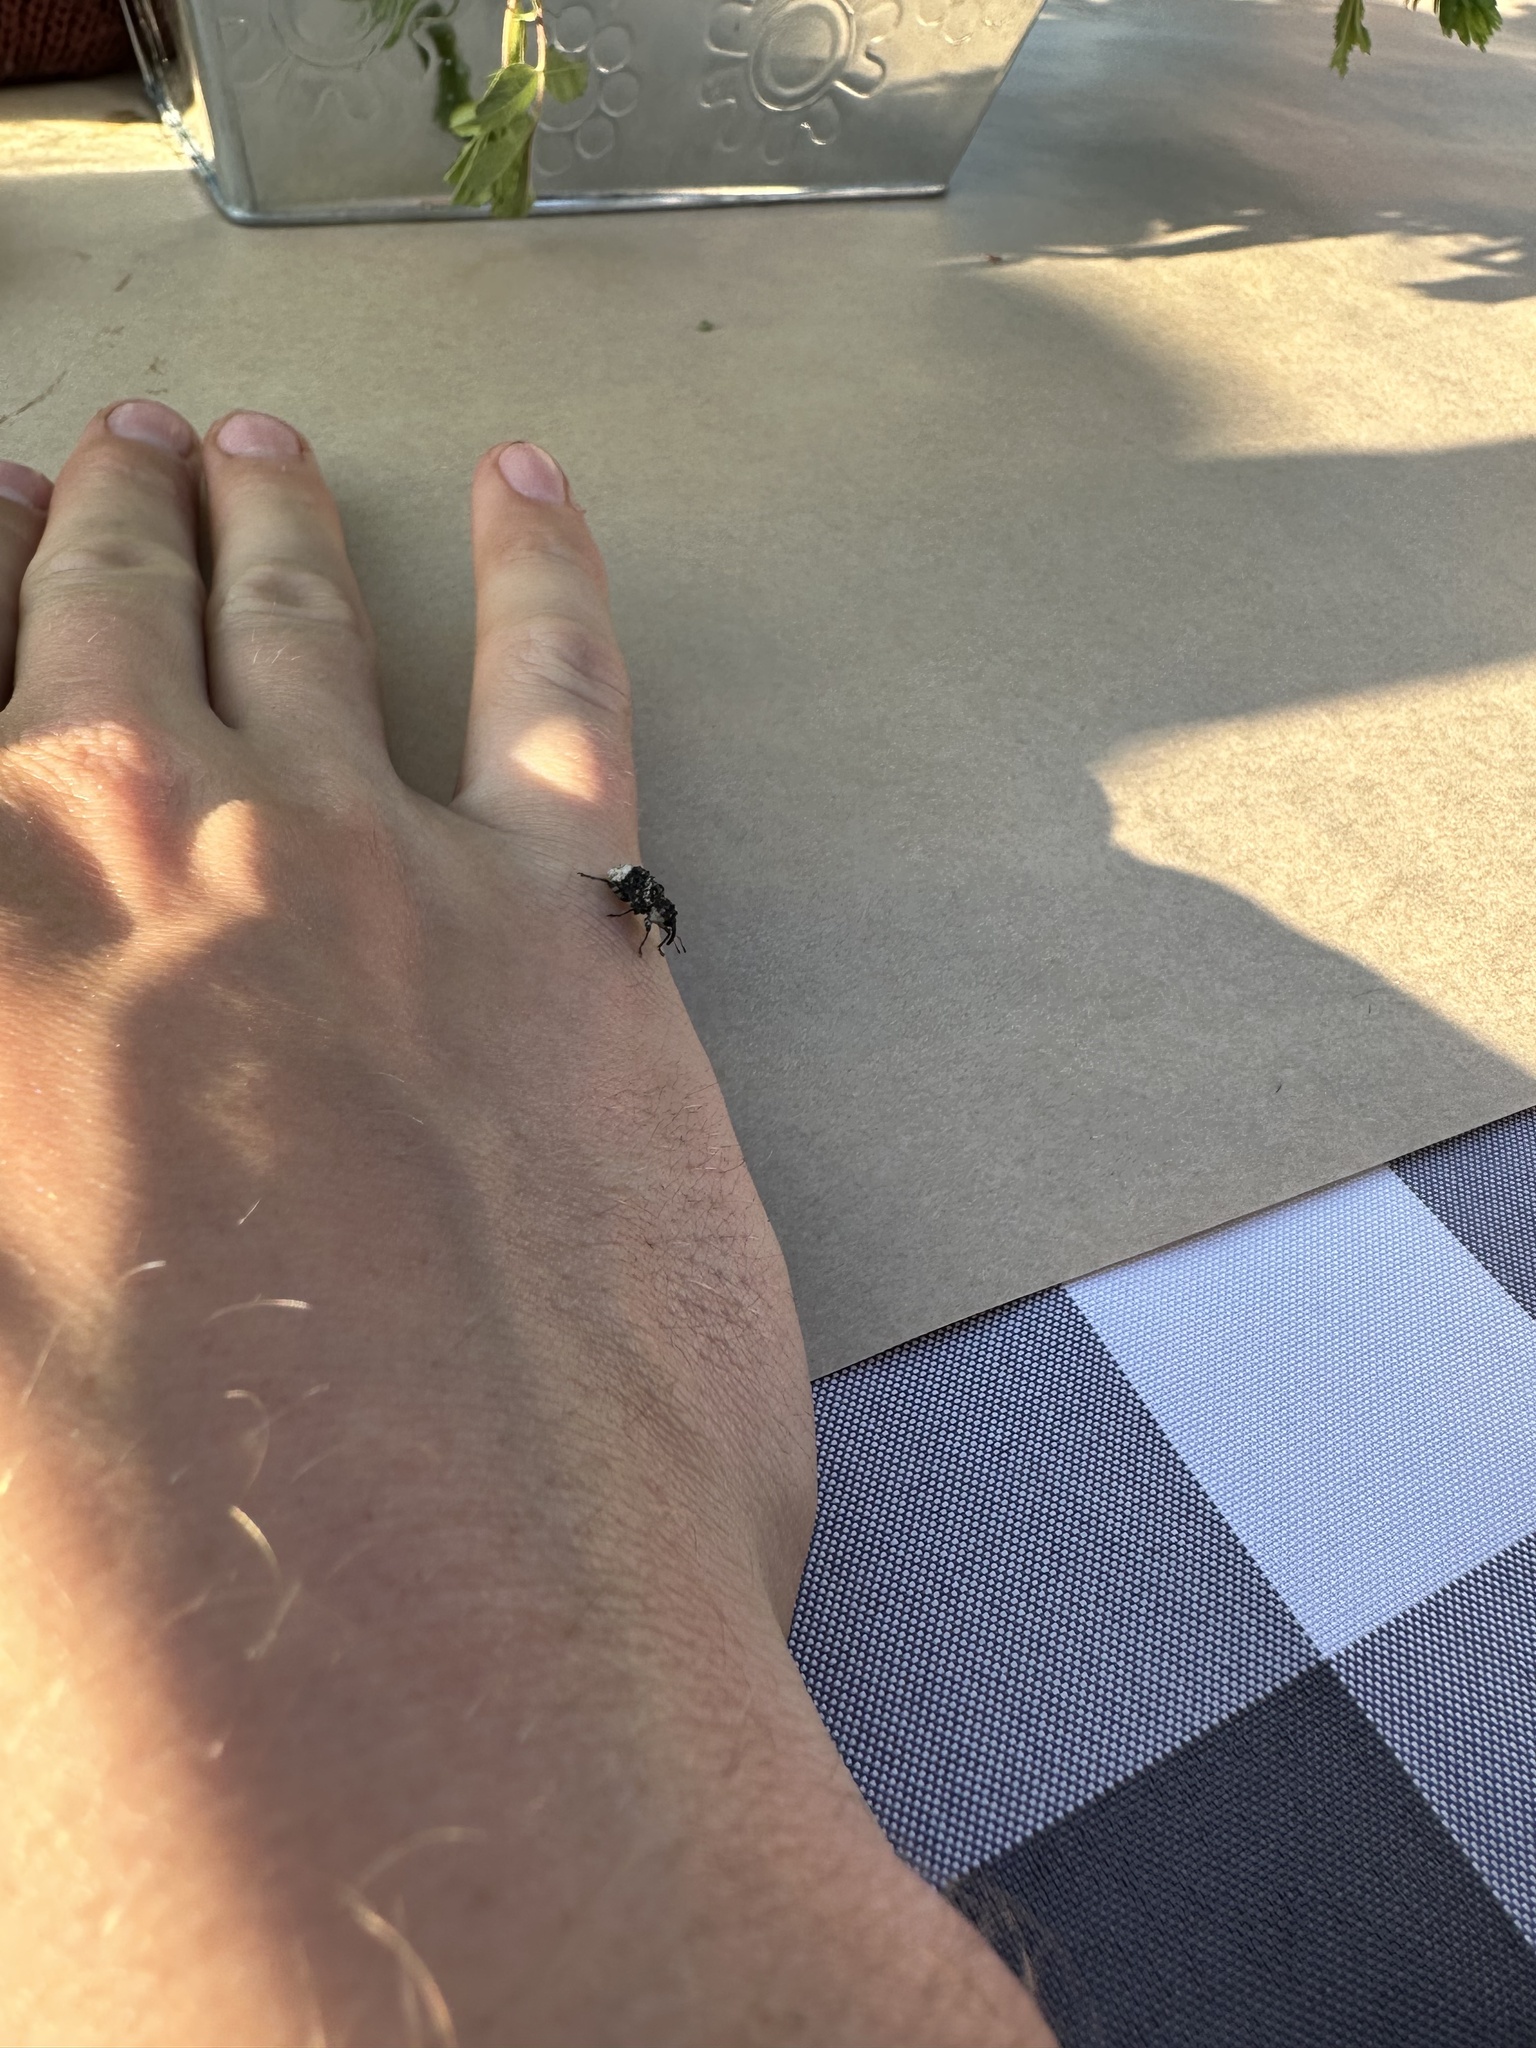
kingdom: Animalia
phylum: Arthropoda
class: Insecta
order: Coleoptera
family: Curculionidae
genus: Cryptorhynchus
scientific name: Cryptorhynchus lapathi
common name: Weevil
